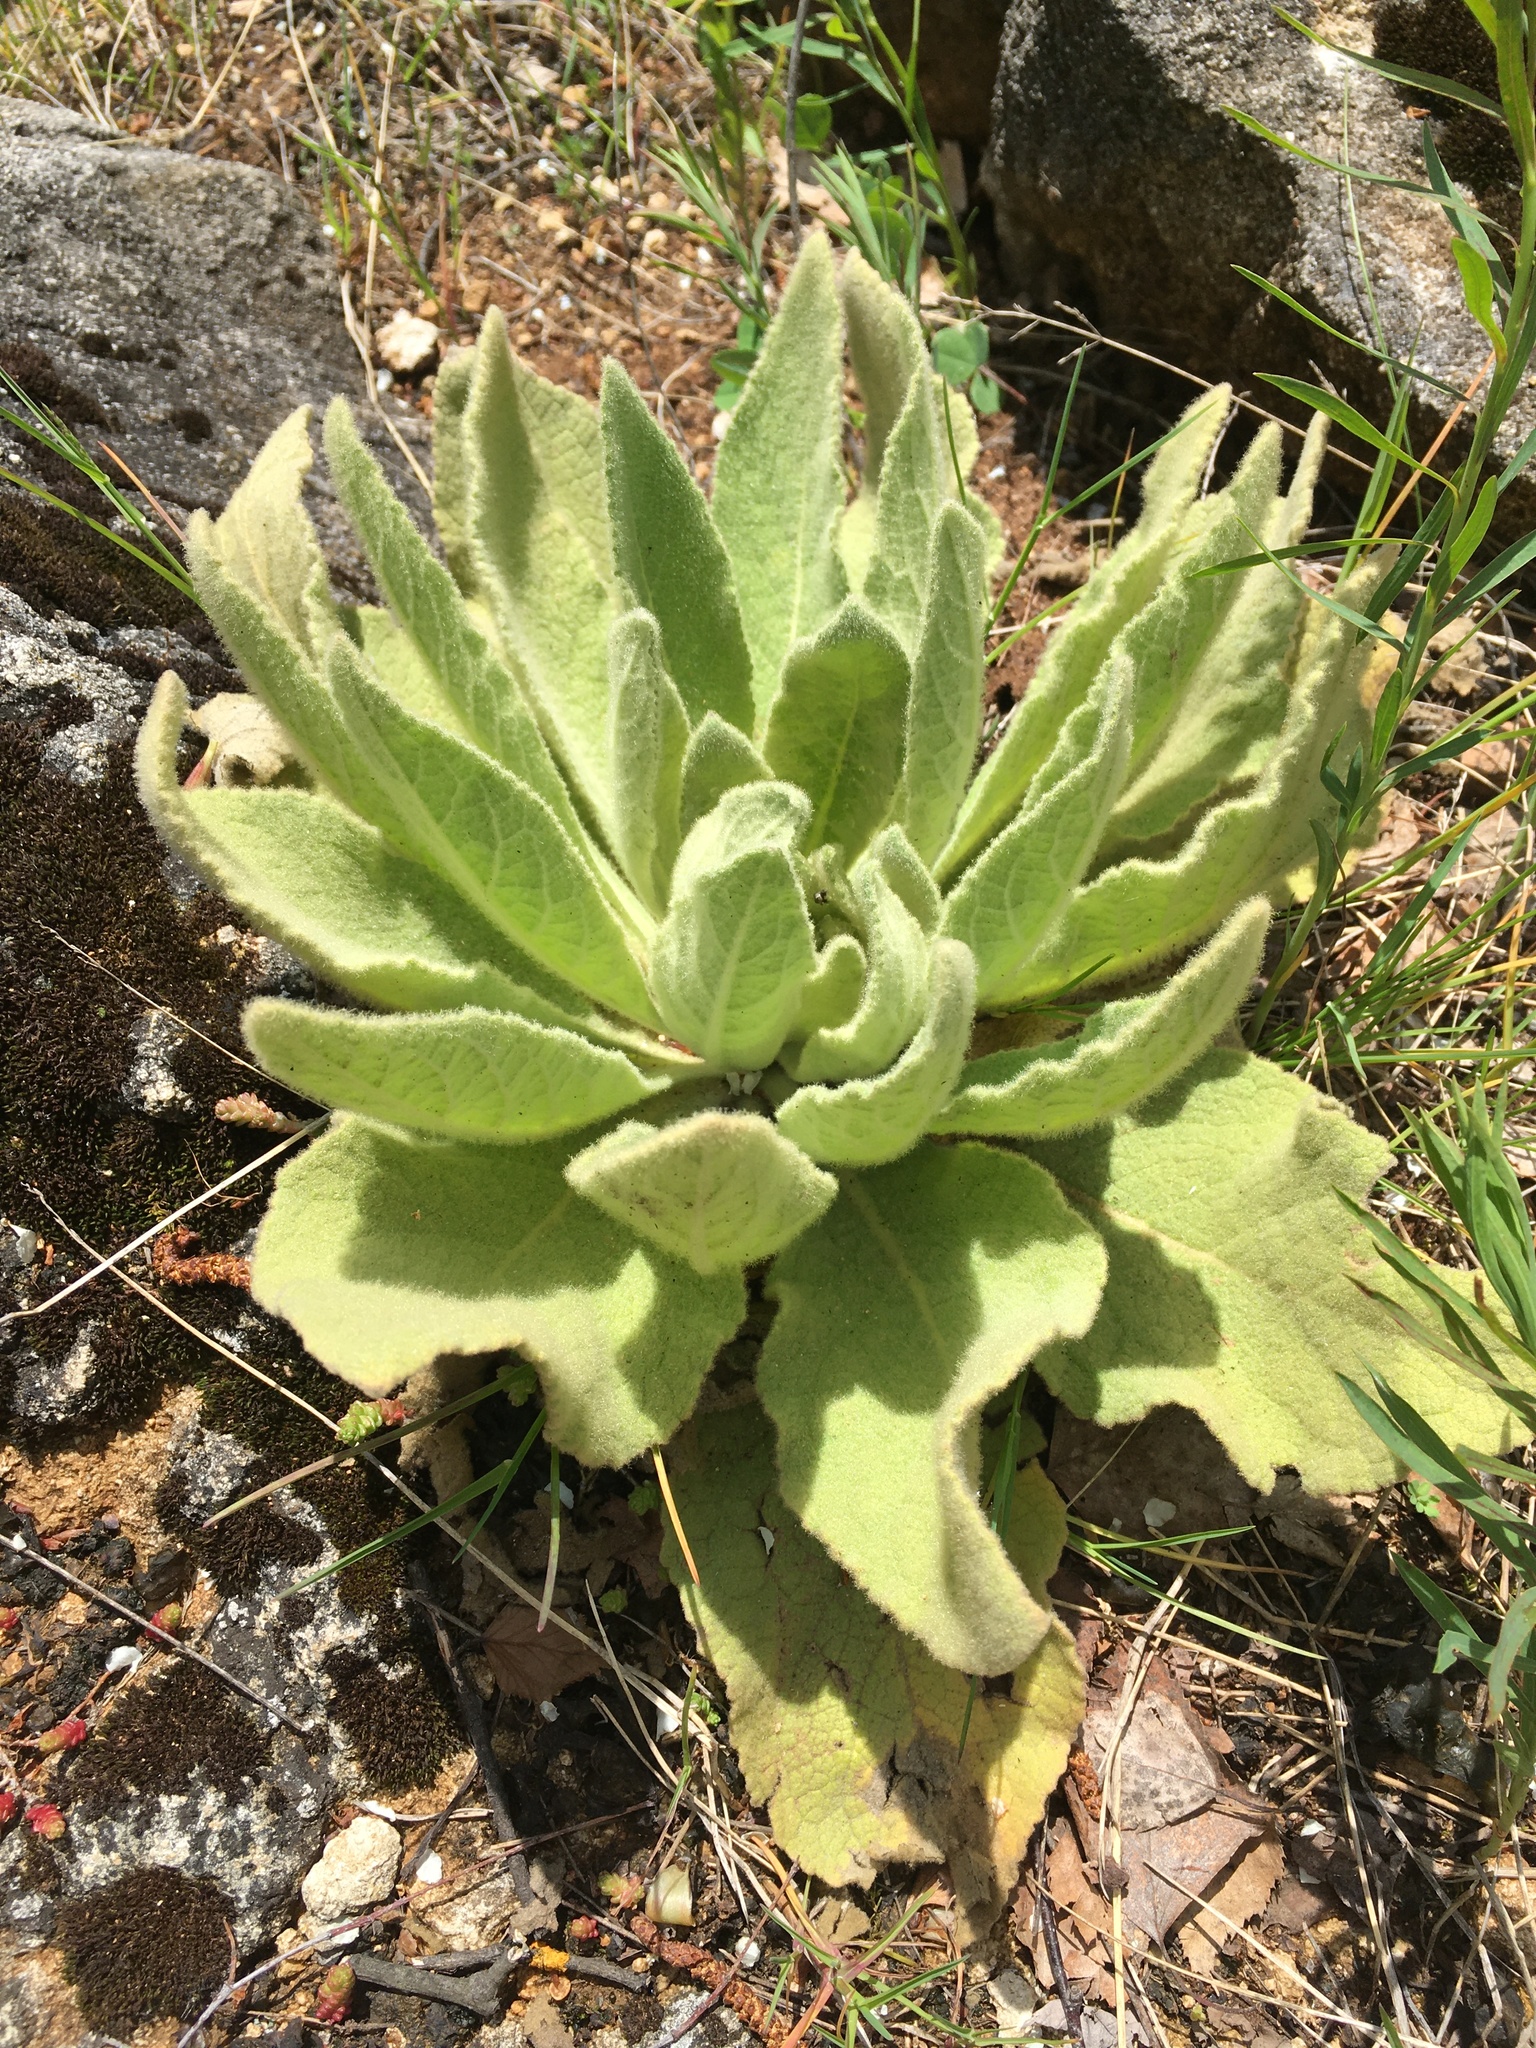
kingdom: Plantae
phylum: Tracheophyta
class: Magnoliopsida
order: Lamiales
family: Scrophulariaceae
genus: Verbascum
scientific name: Verbascum thapsus
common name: Common mullein
